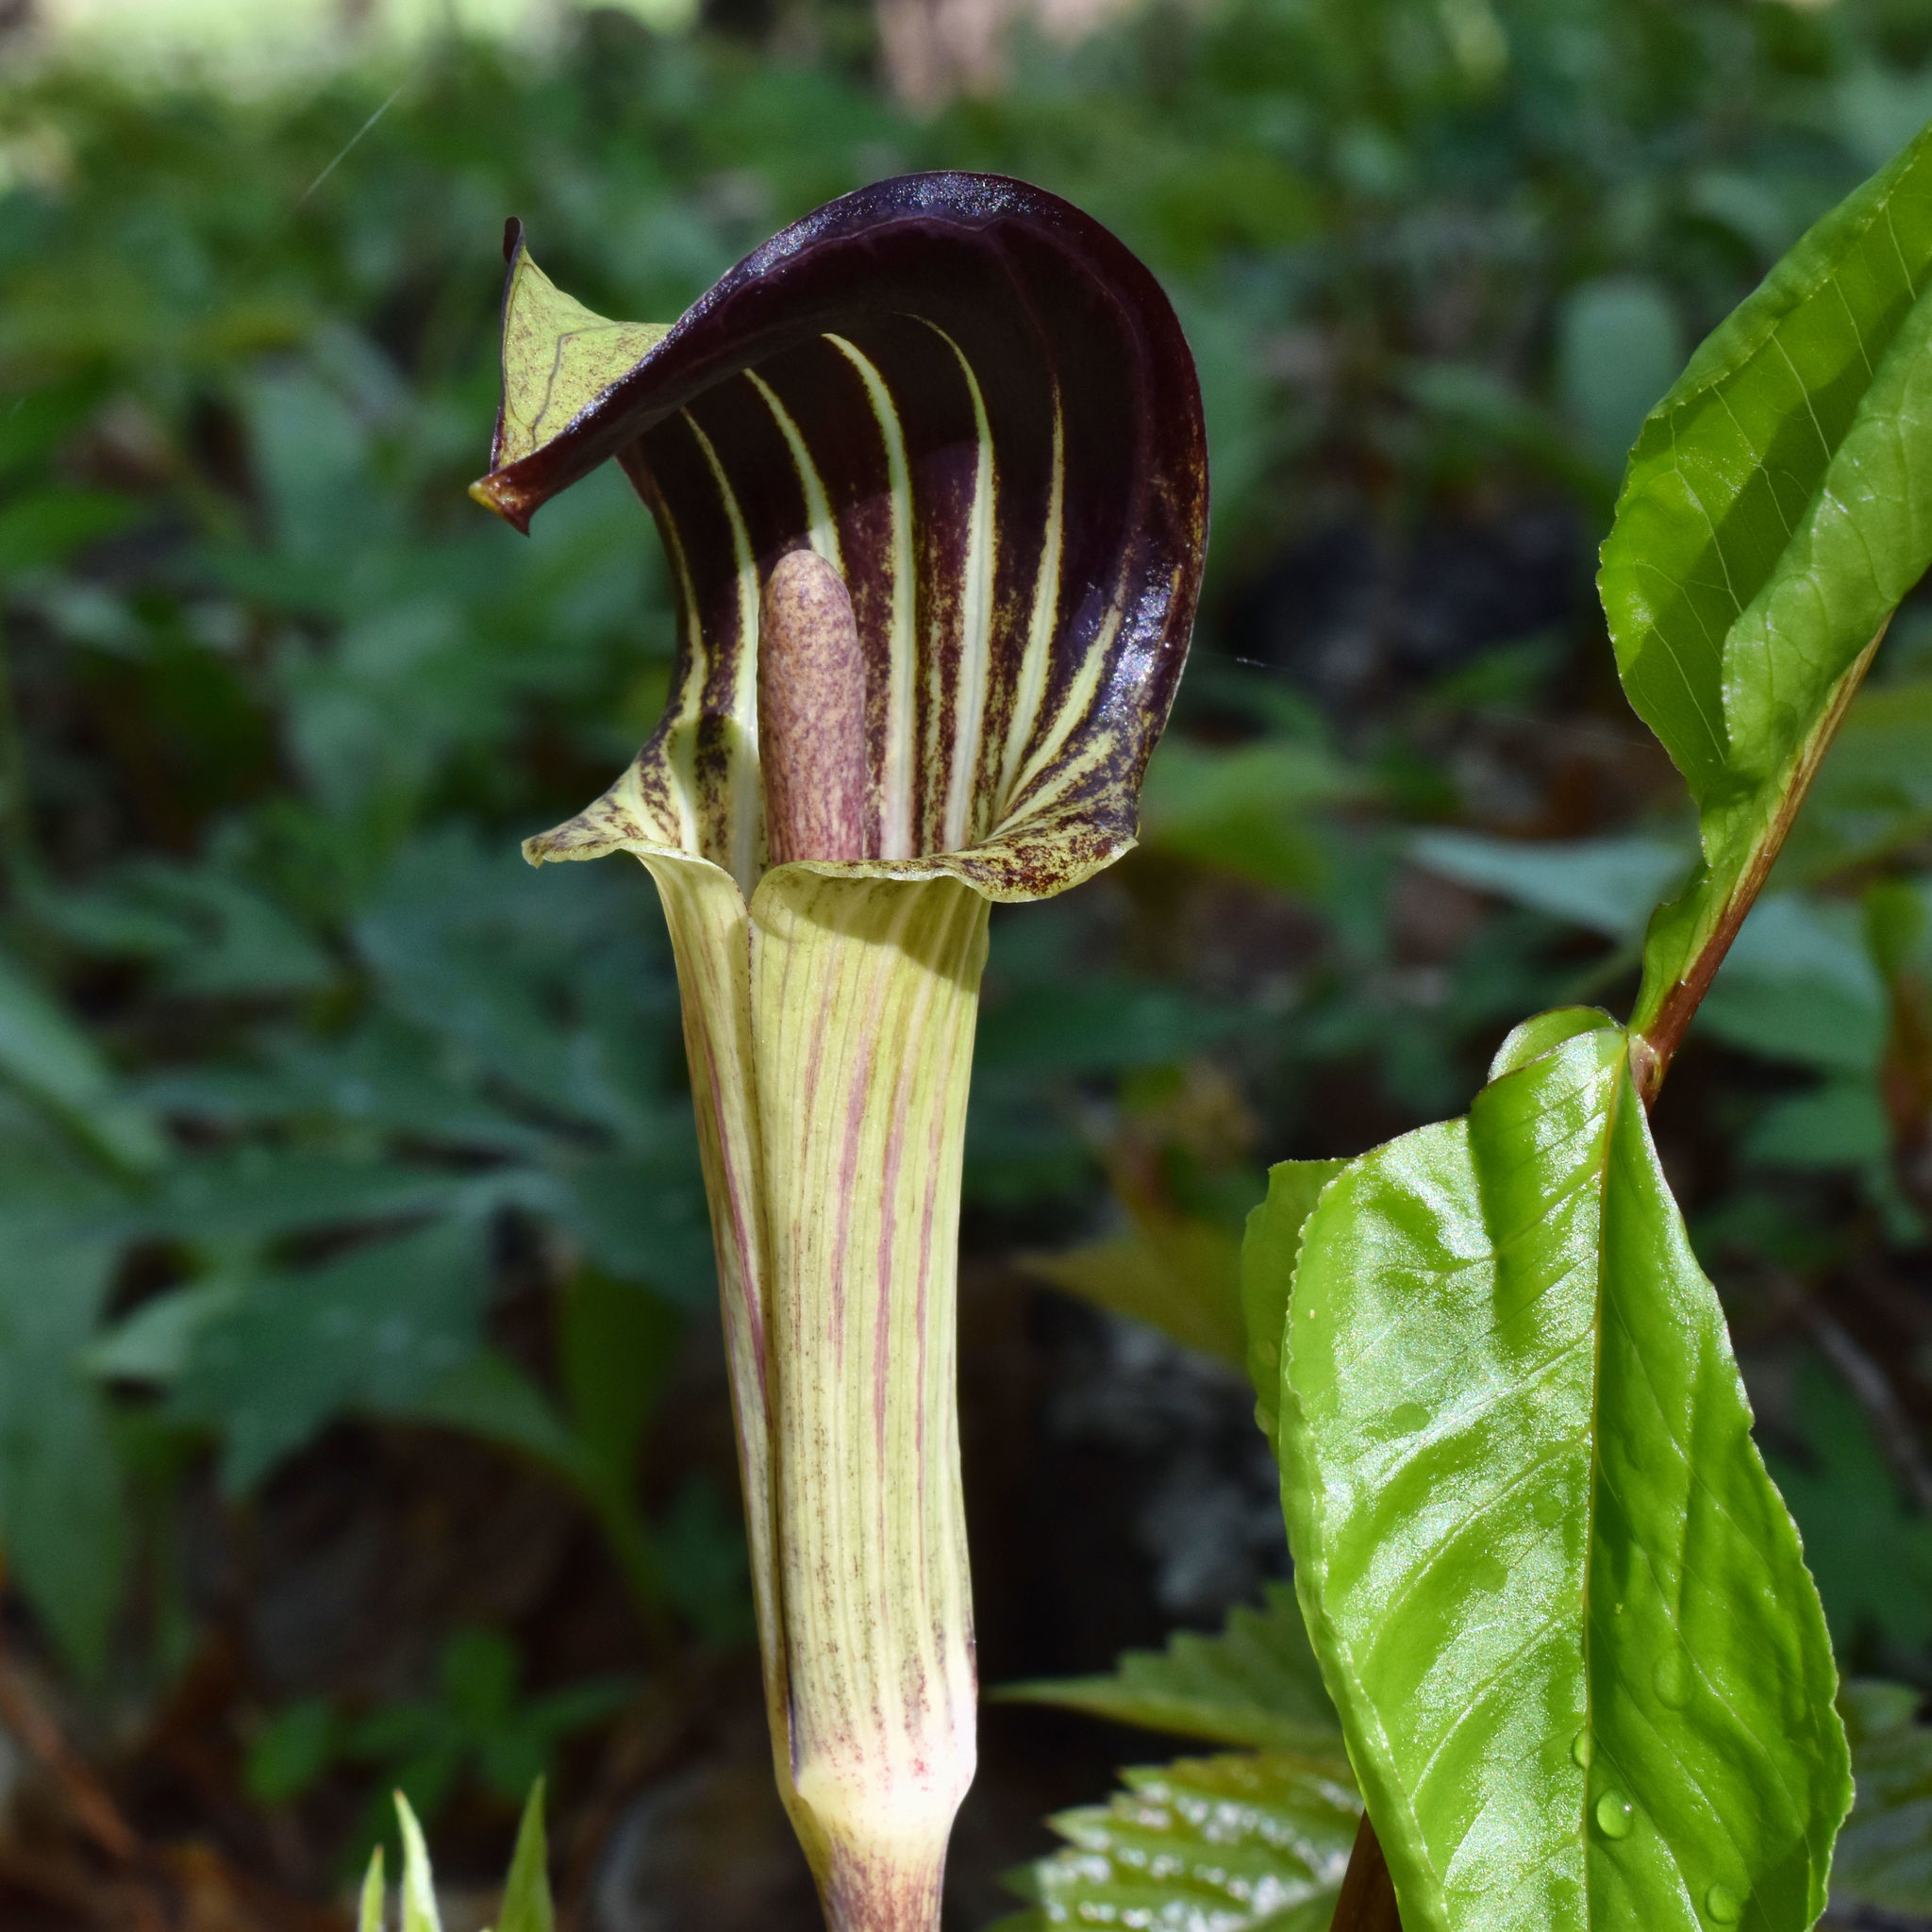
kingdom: Plantae
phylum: Tracheophyta
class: Liliopsida
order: Alismatales
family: Araceae
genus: Arisaema
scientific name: Arisaema triphyllum
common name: Jack-in-the-pulpit
